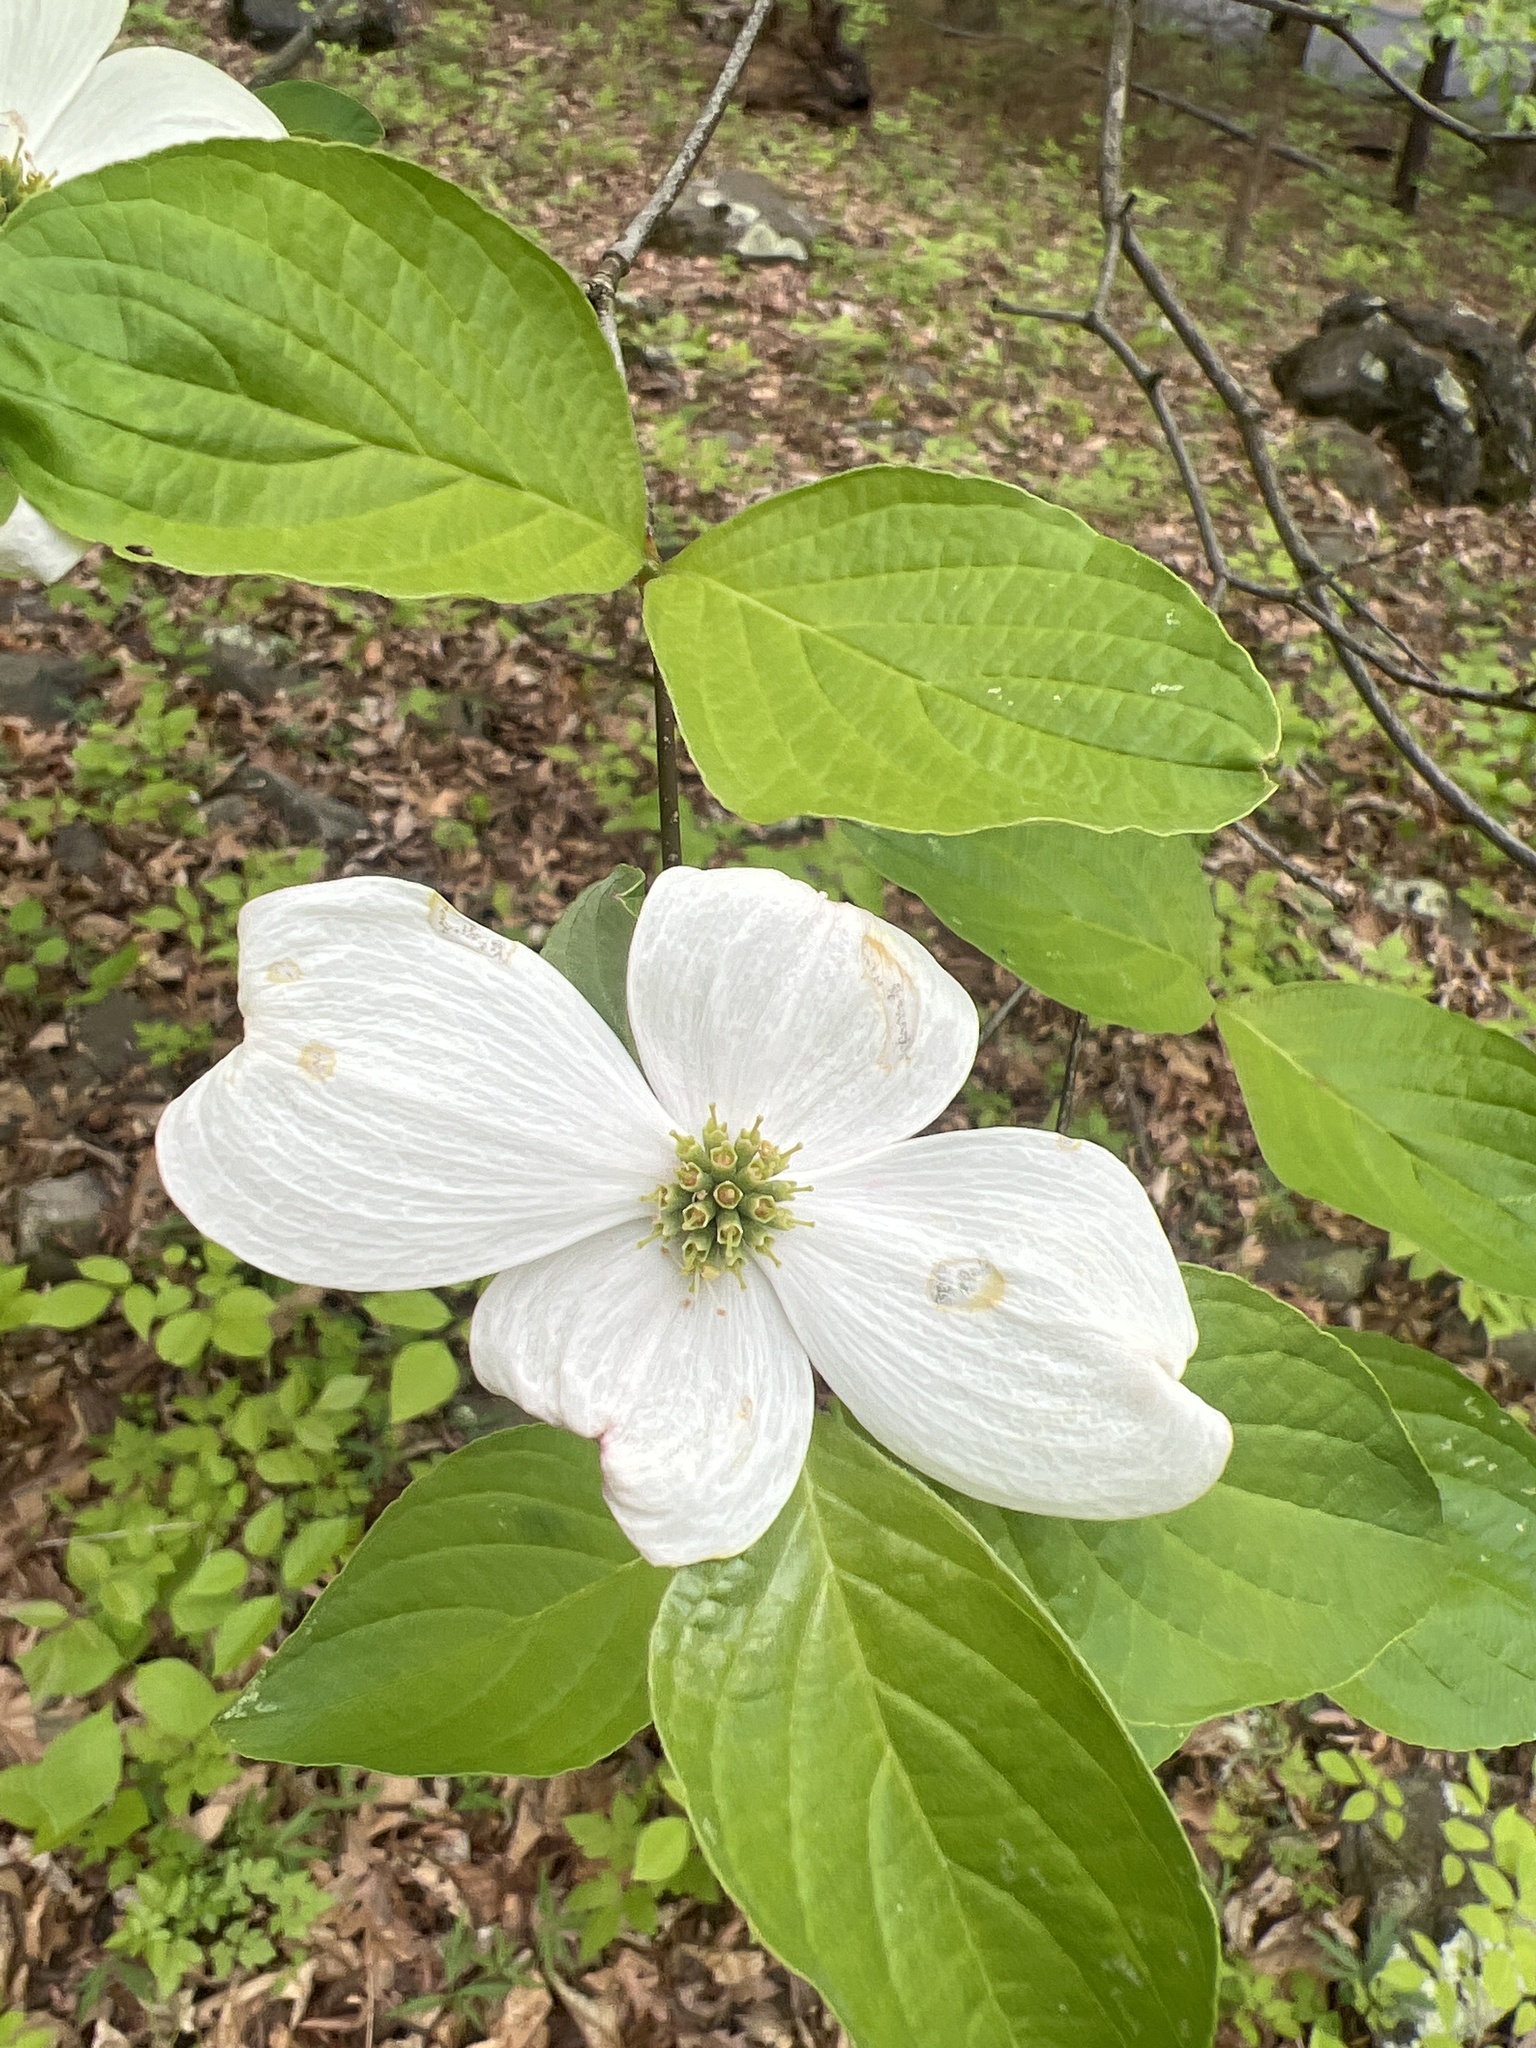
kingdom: Plantae
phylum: Tracheophyta
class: Magnoliopsida
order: Cornales
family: Cornaceae
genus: Cornus
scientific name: Cornus florida
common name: Flowering dogwood
